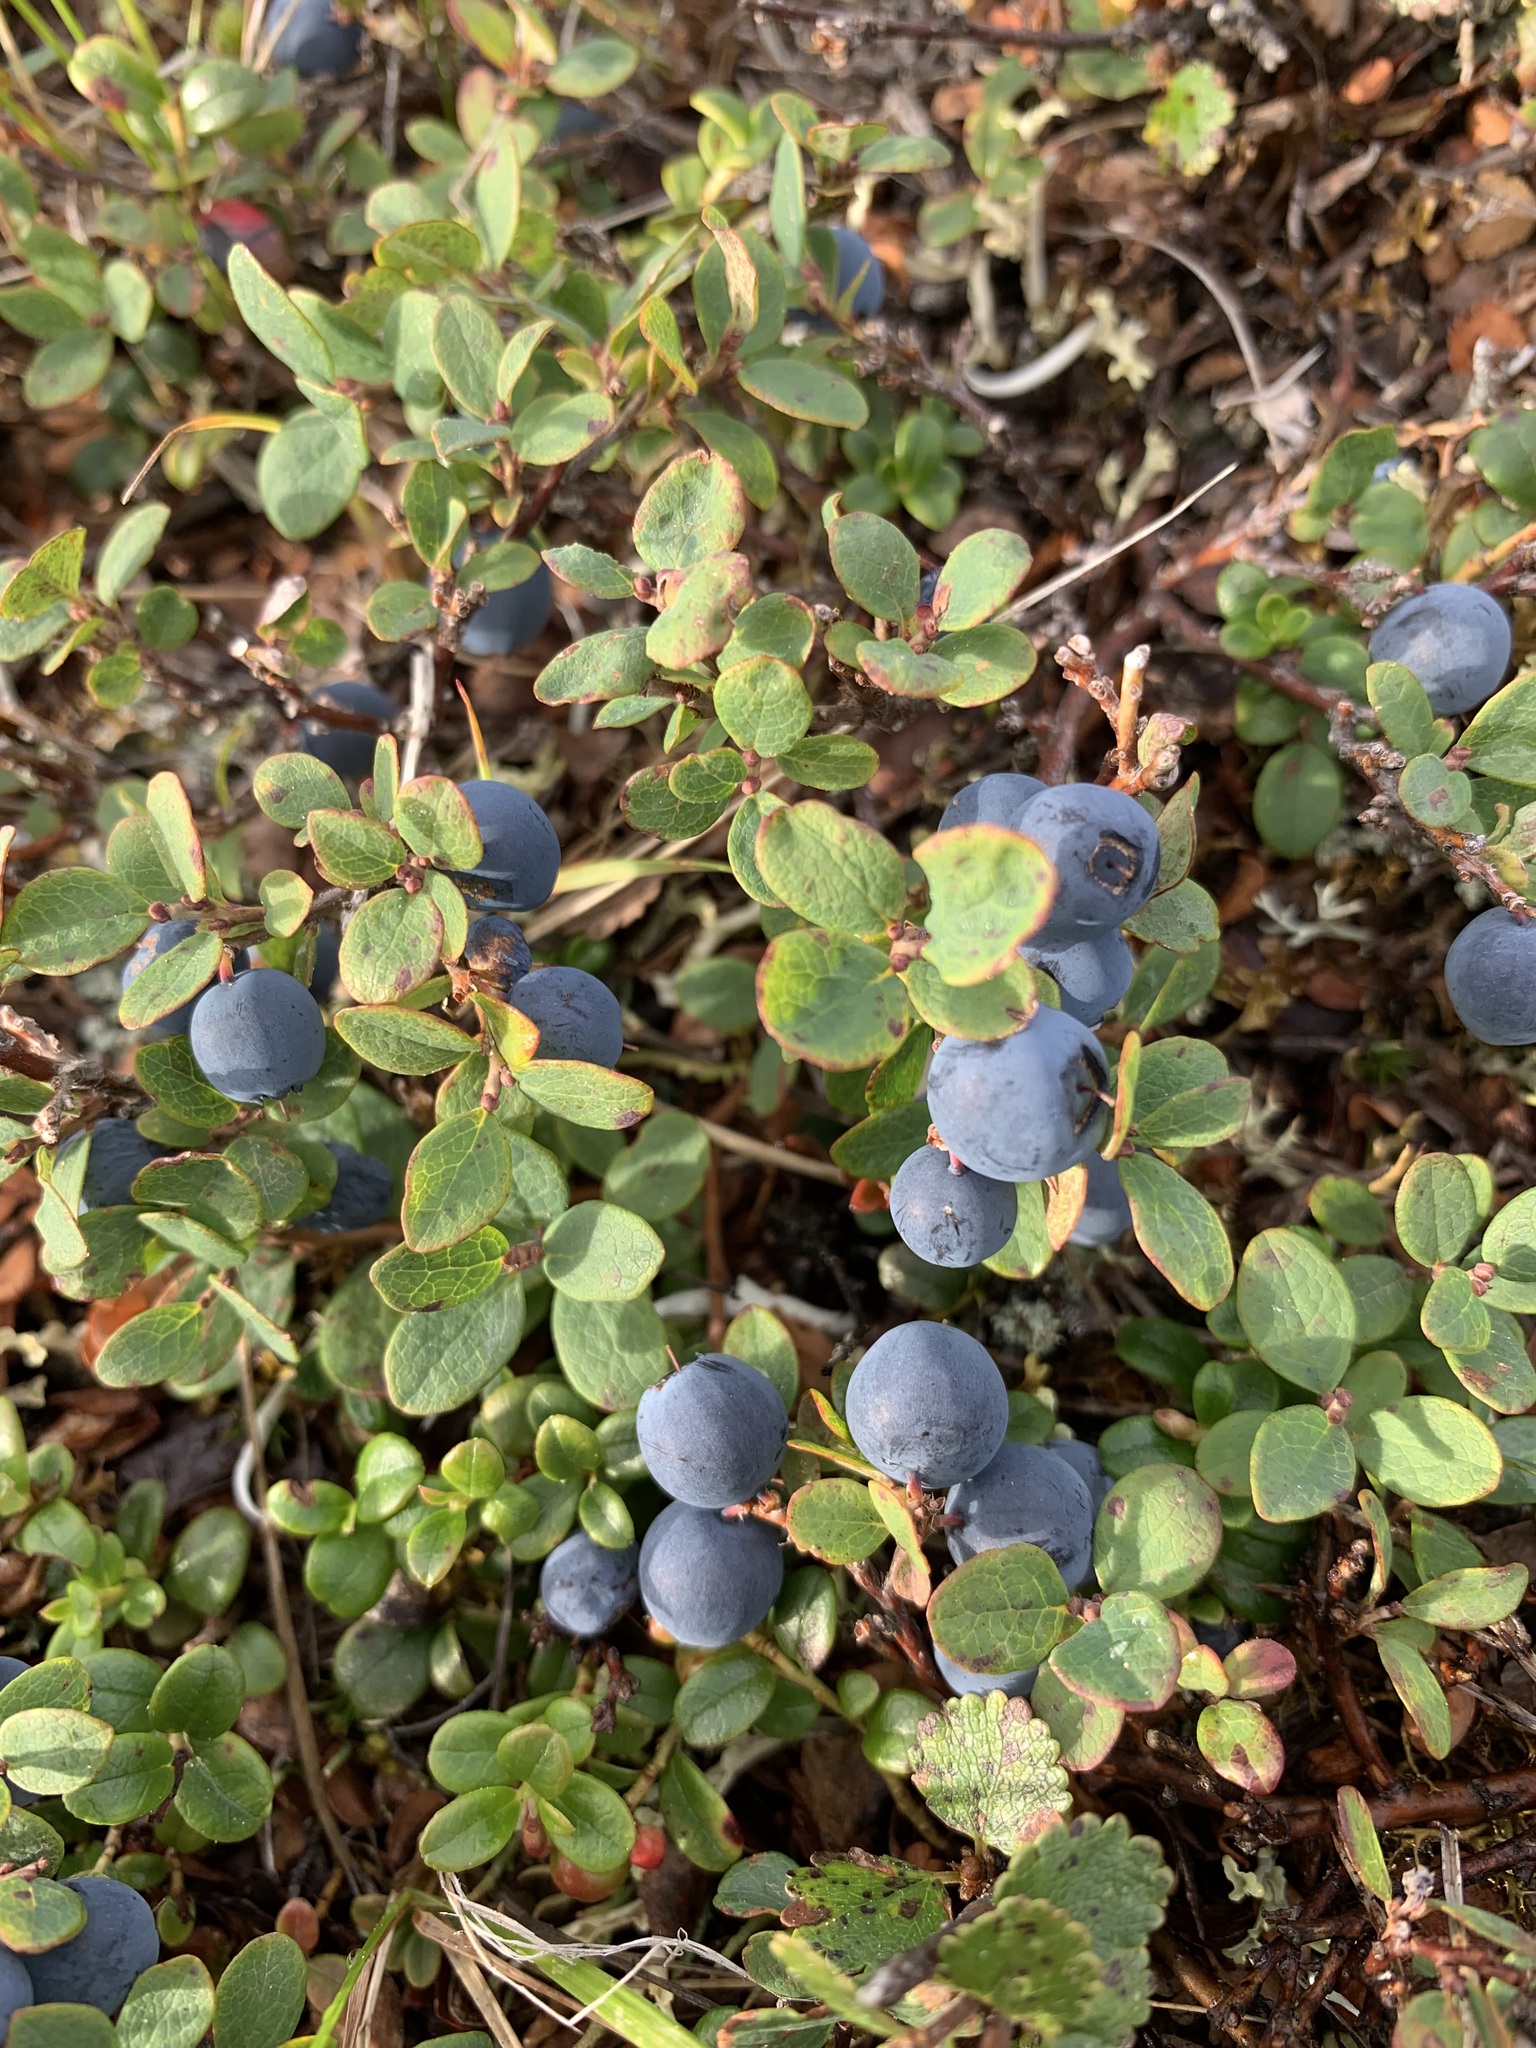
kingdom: Plantae
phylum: Tracheophyta
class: Magnoliopsida
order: Ericales
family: Ericaceae
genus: Vaccinium
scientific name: Vaccinium uliginosum
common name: Bog bilberry
